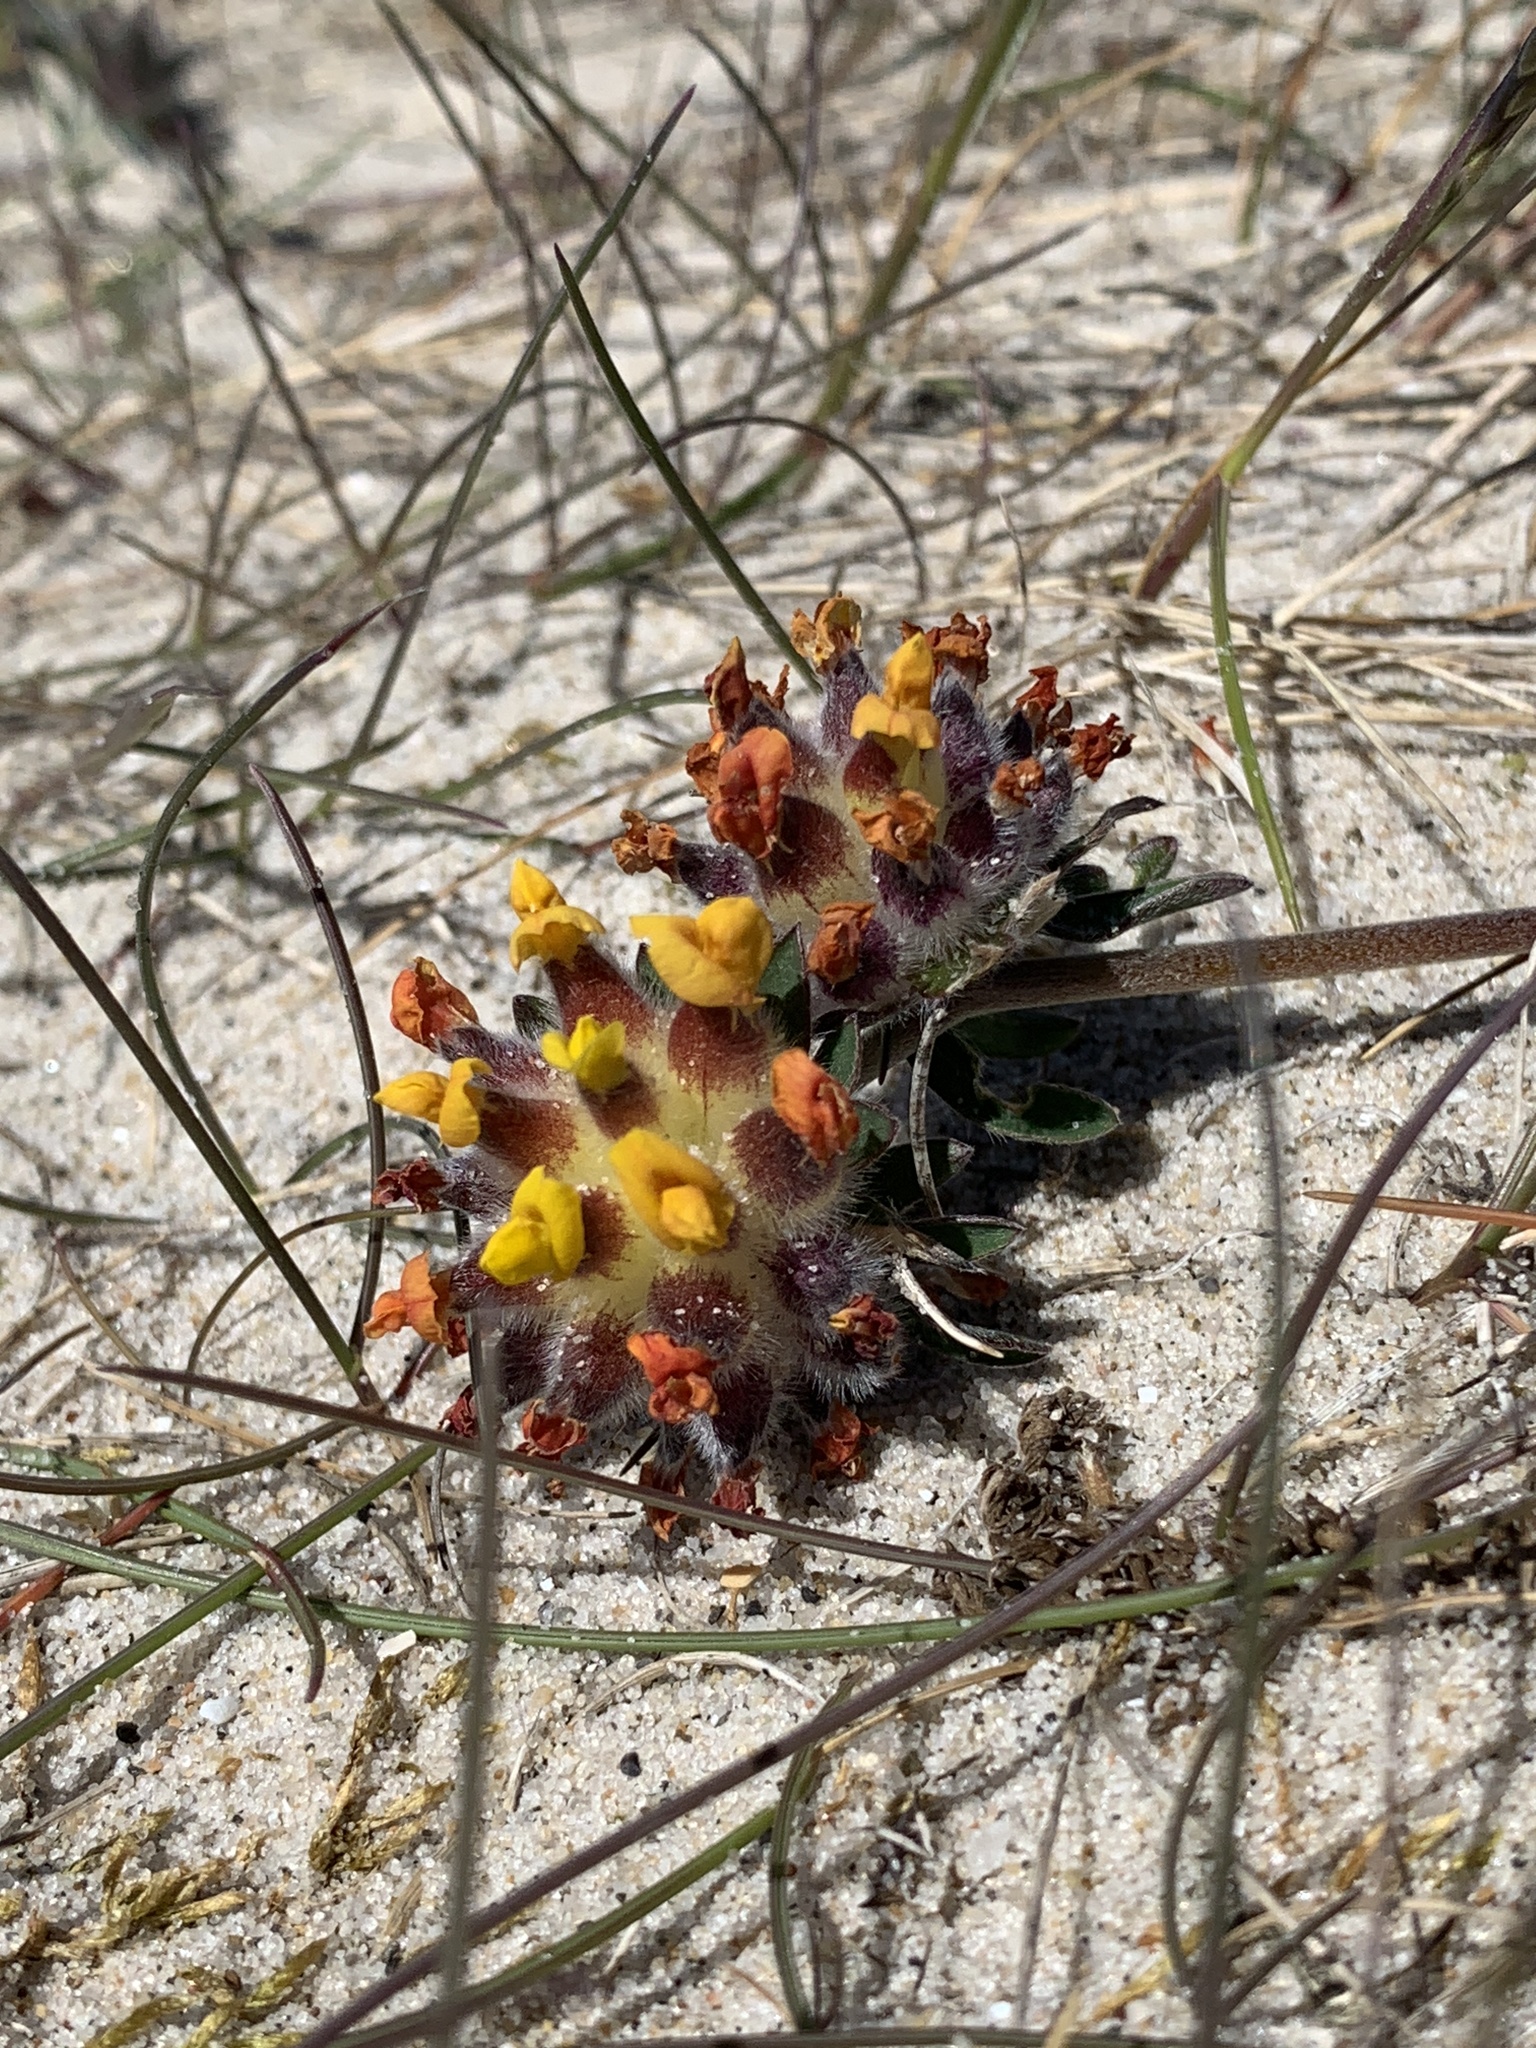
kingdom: Plantae
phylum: Tracheophyta
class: Magnoliopsida
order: Fabales
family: Fabaceae
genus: Anthyllis
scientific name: Anthyllis vulneraria
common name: Kidney vetch
